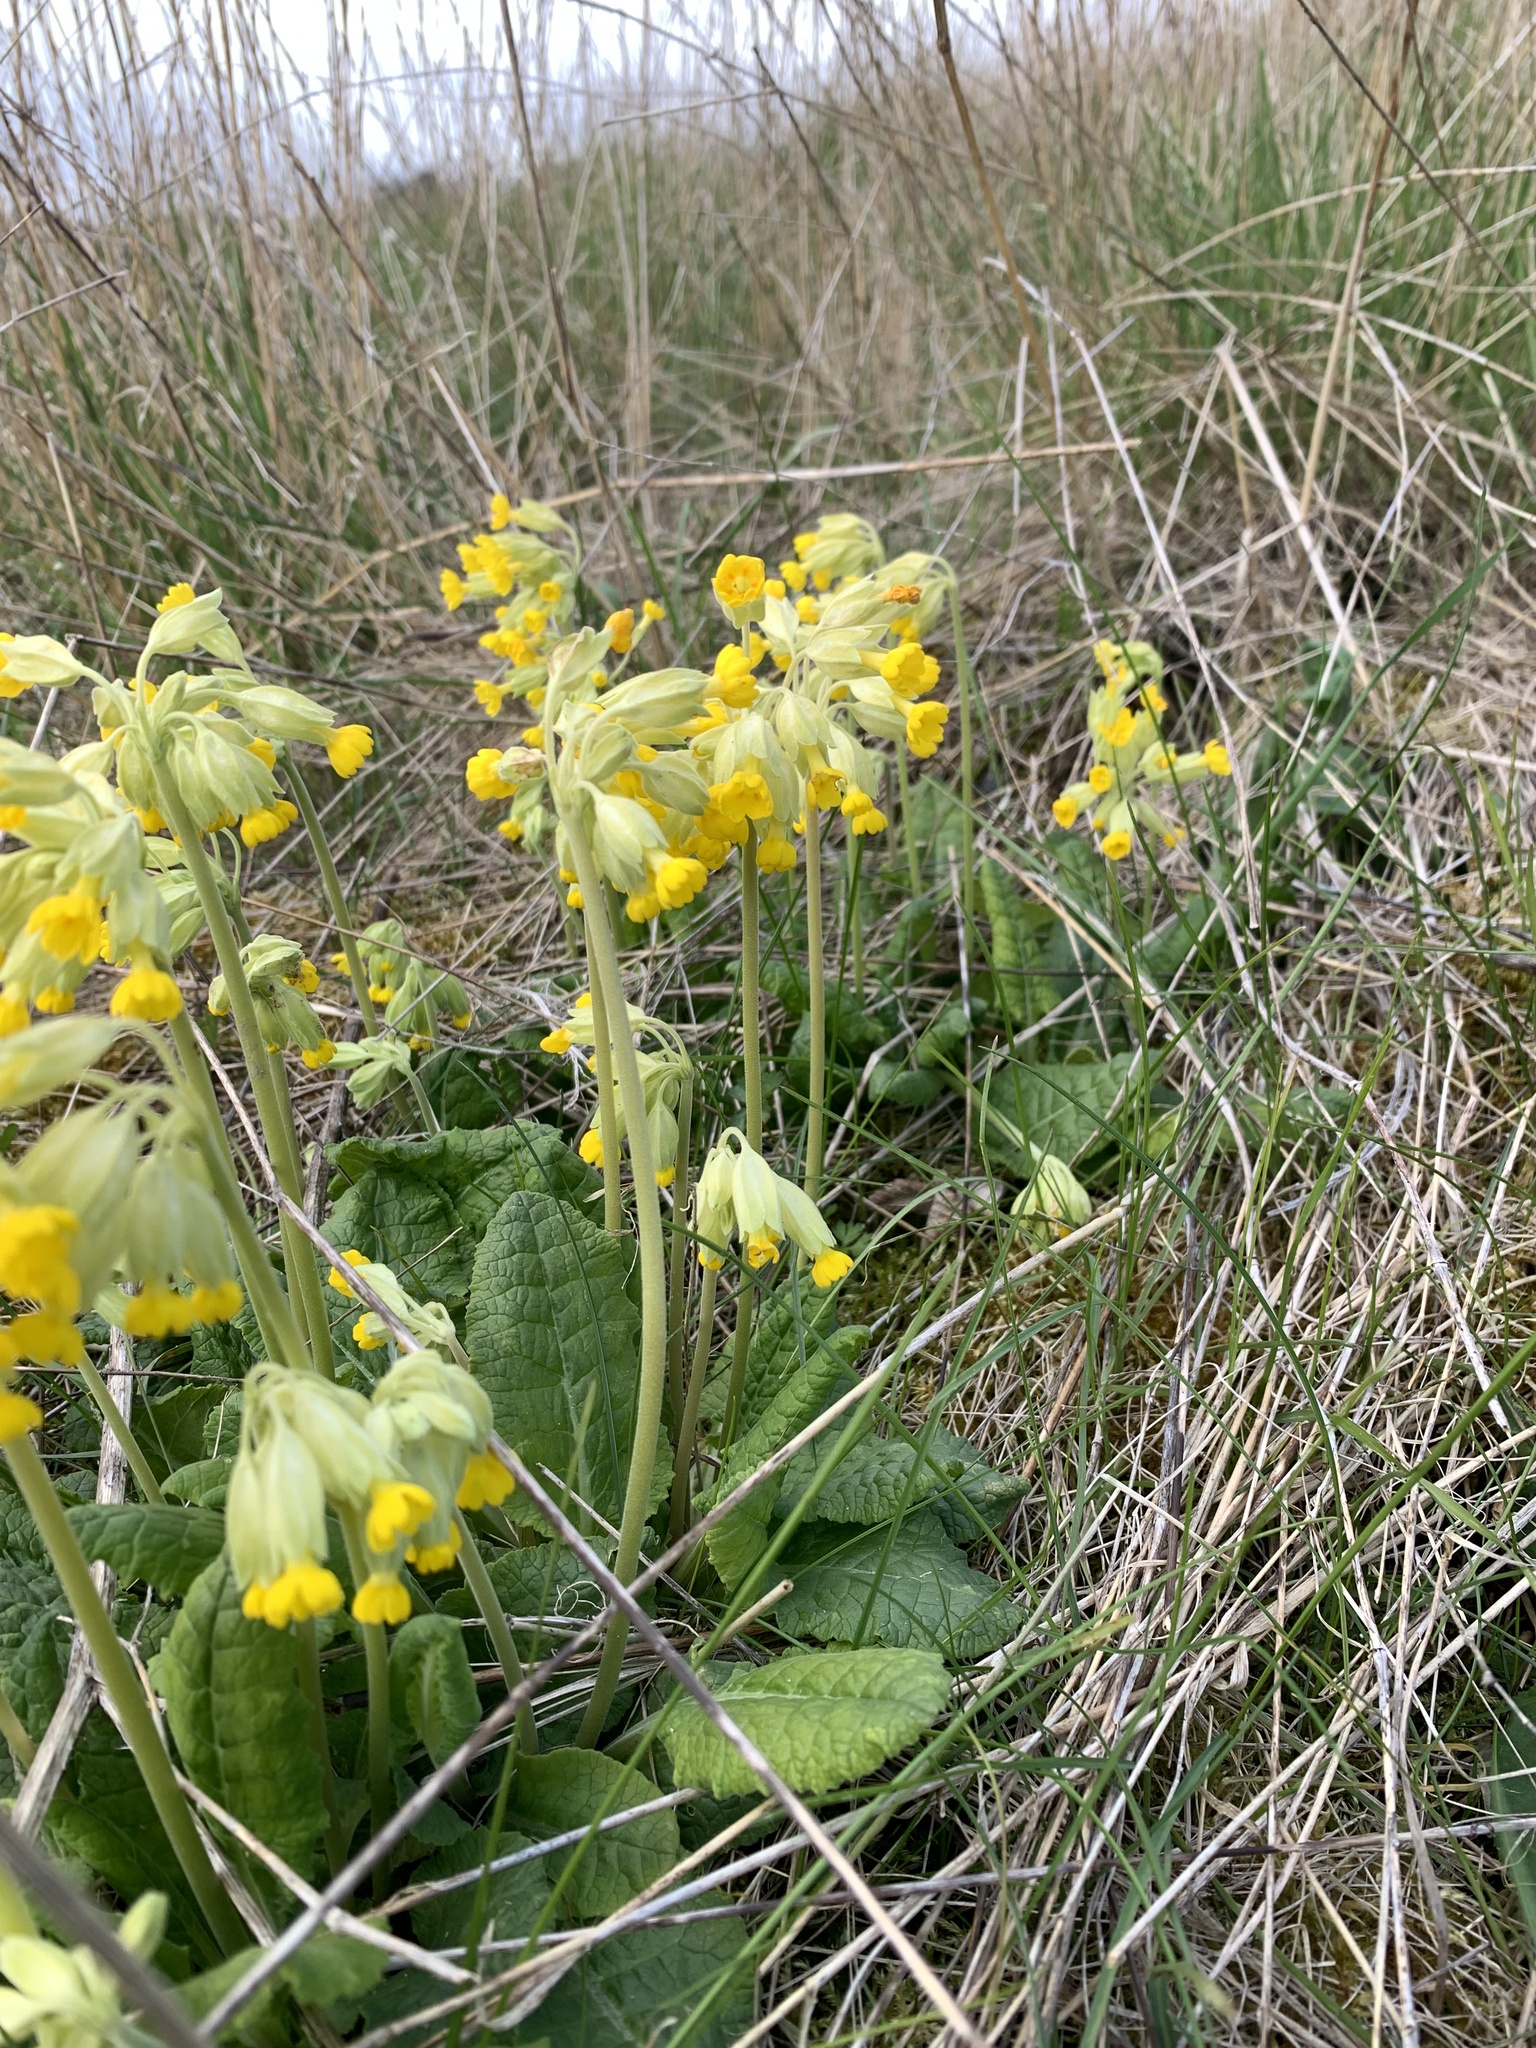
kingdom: Plantae
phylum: Tracheophyta
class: Magnoliopsida
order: Ericales
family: Primulaceae
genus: Primula
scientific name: Primula veris
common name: Cowslip
